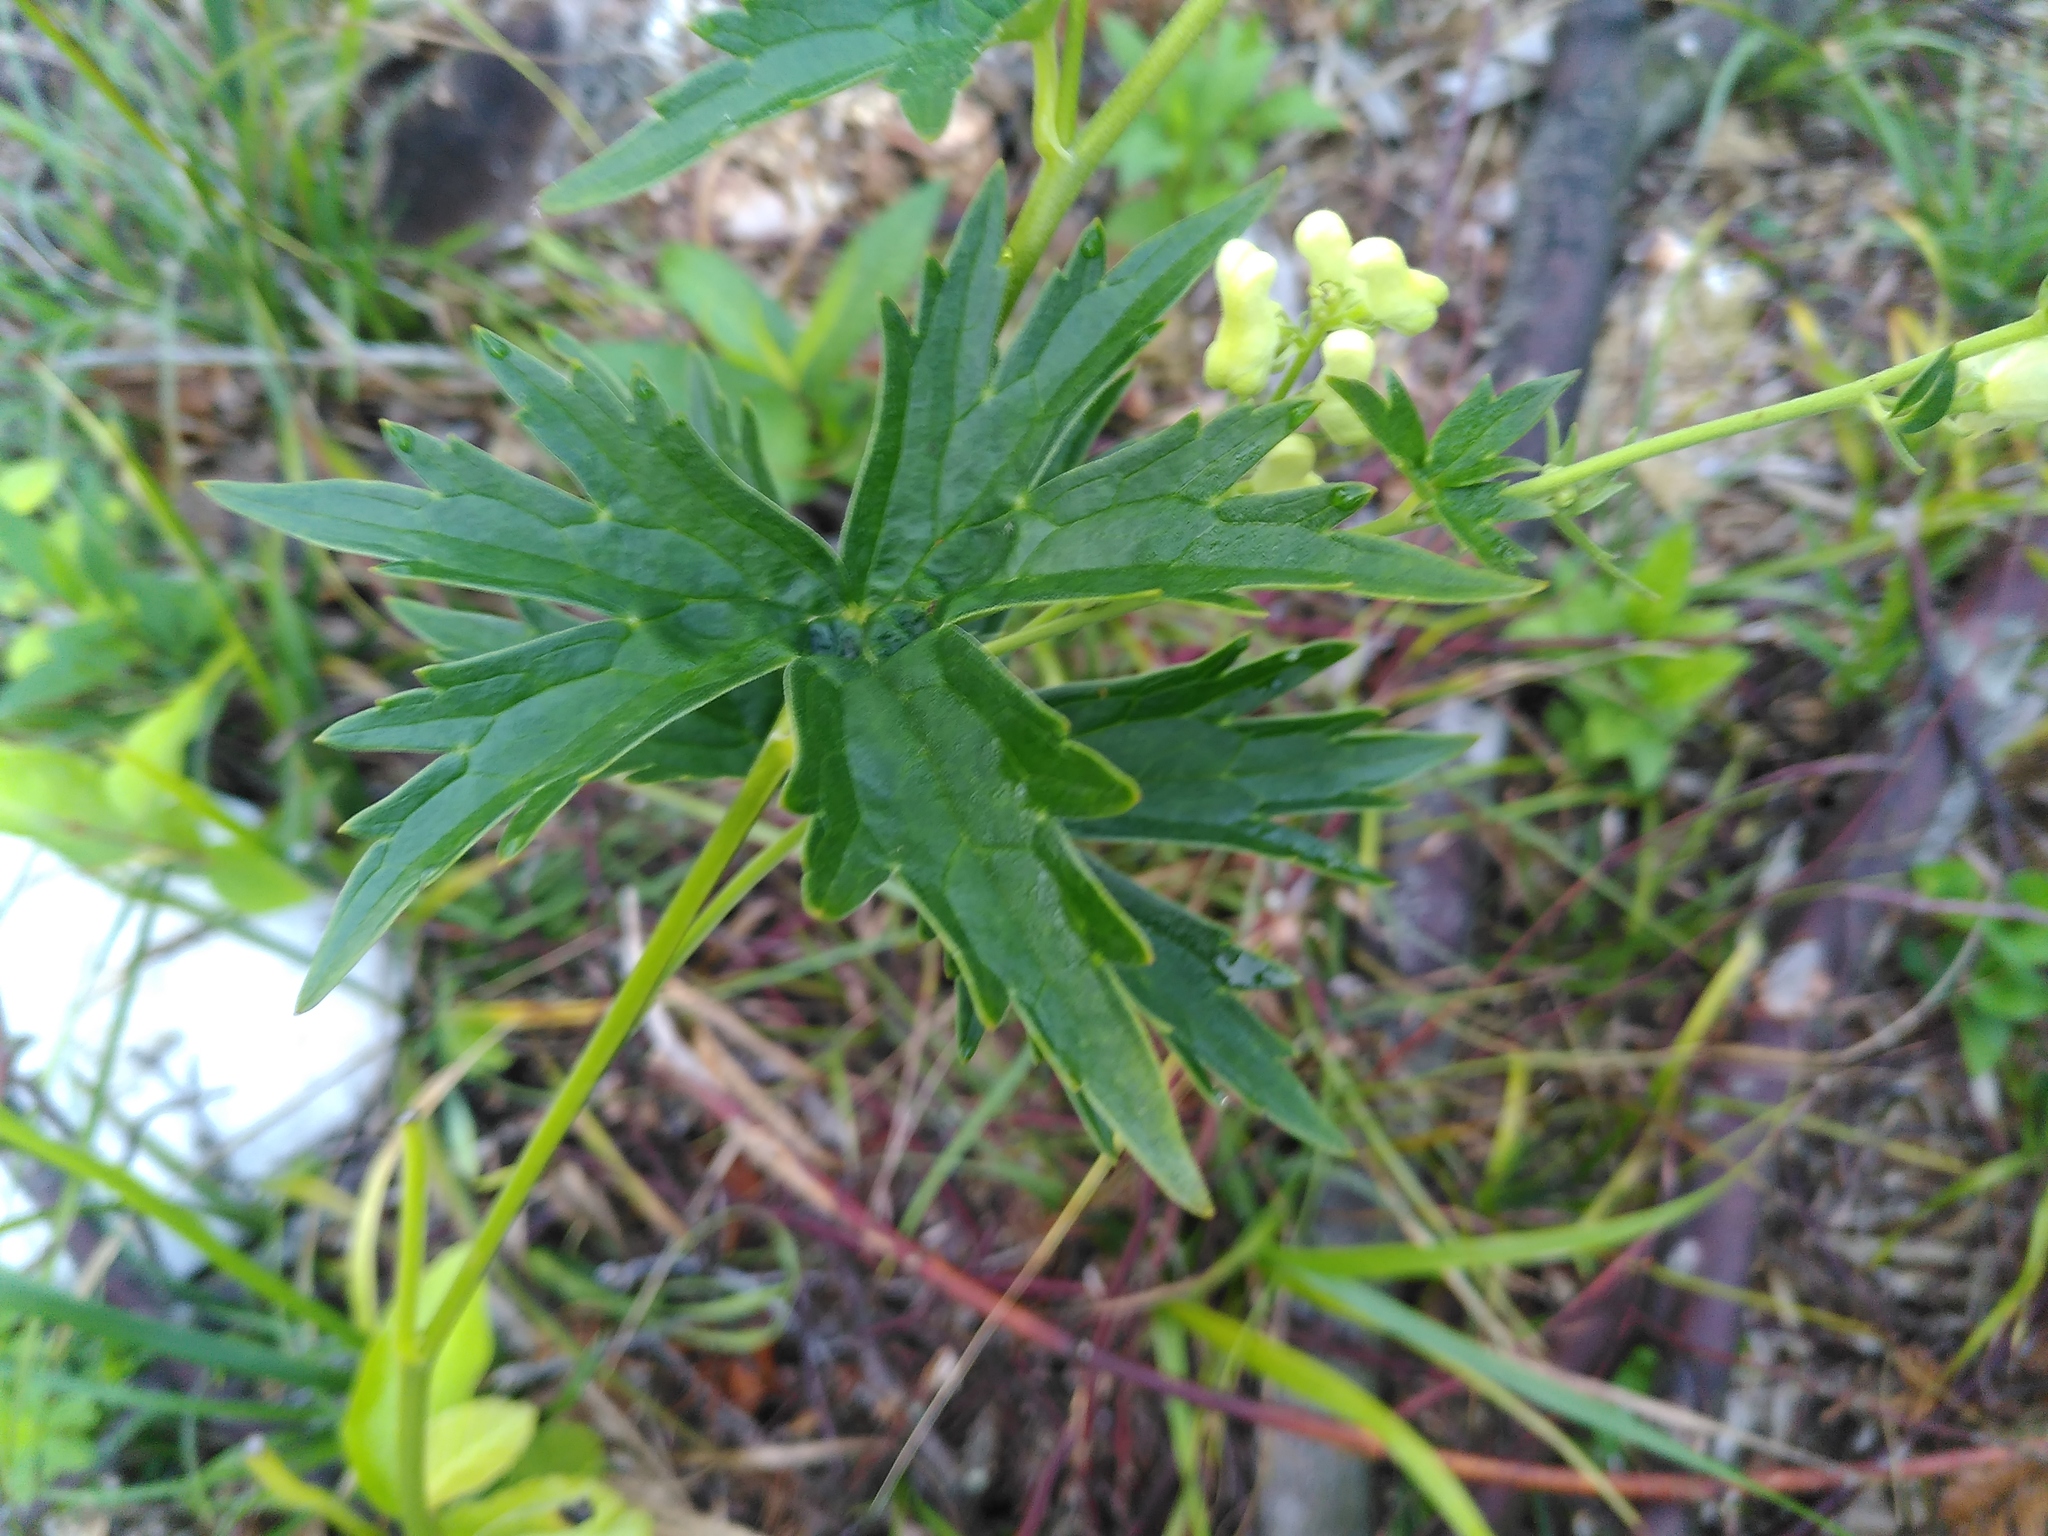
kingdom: Plantae
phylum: Tracheophyta
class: Magnoliopsida
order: Ranunculales
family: Ranunculaceae
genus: Aconitum
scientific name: Aconitum lycoctonum
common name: Wolf's-bane
